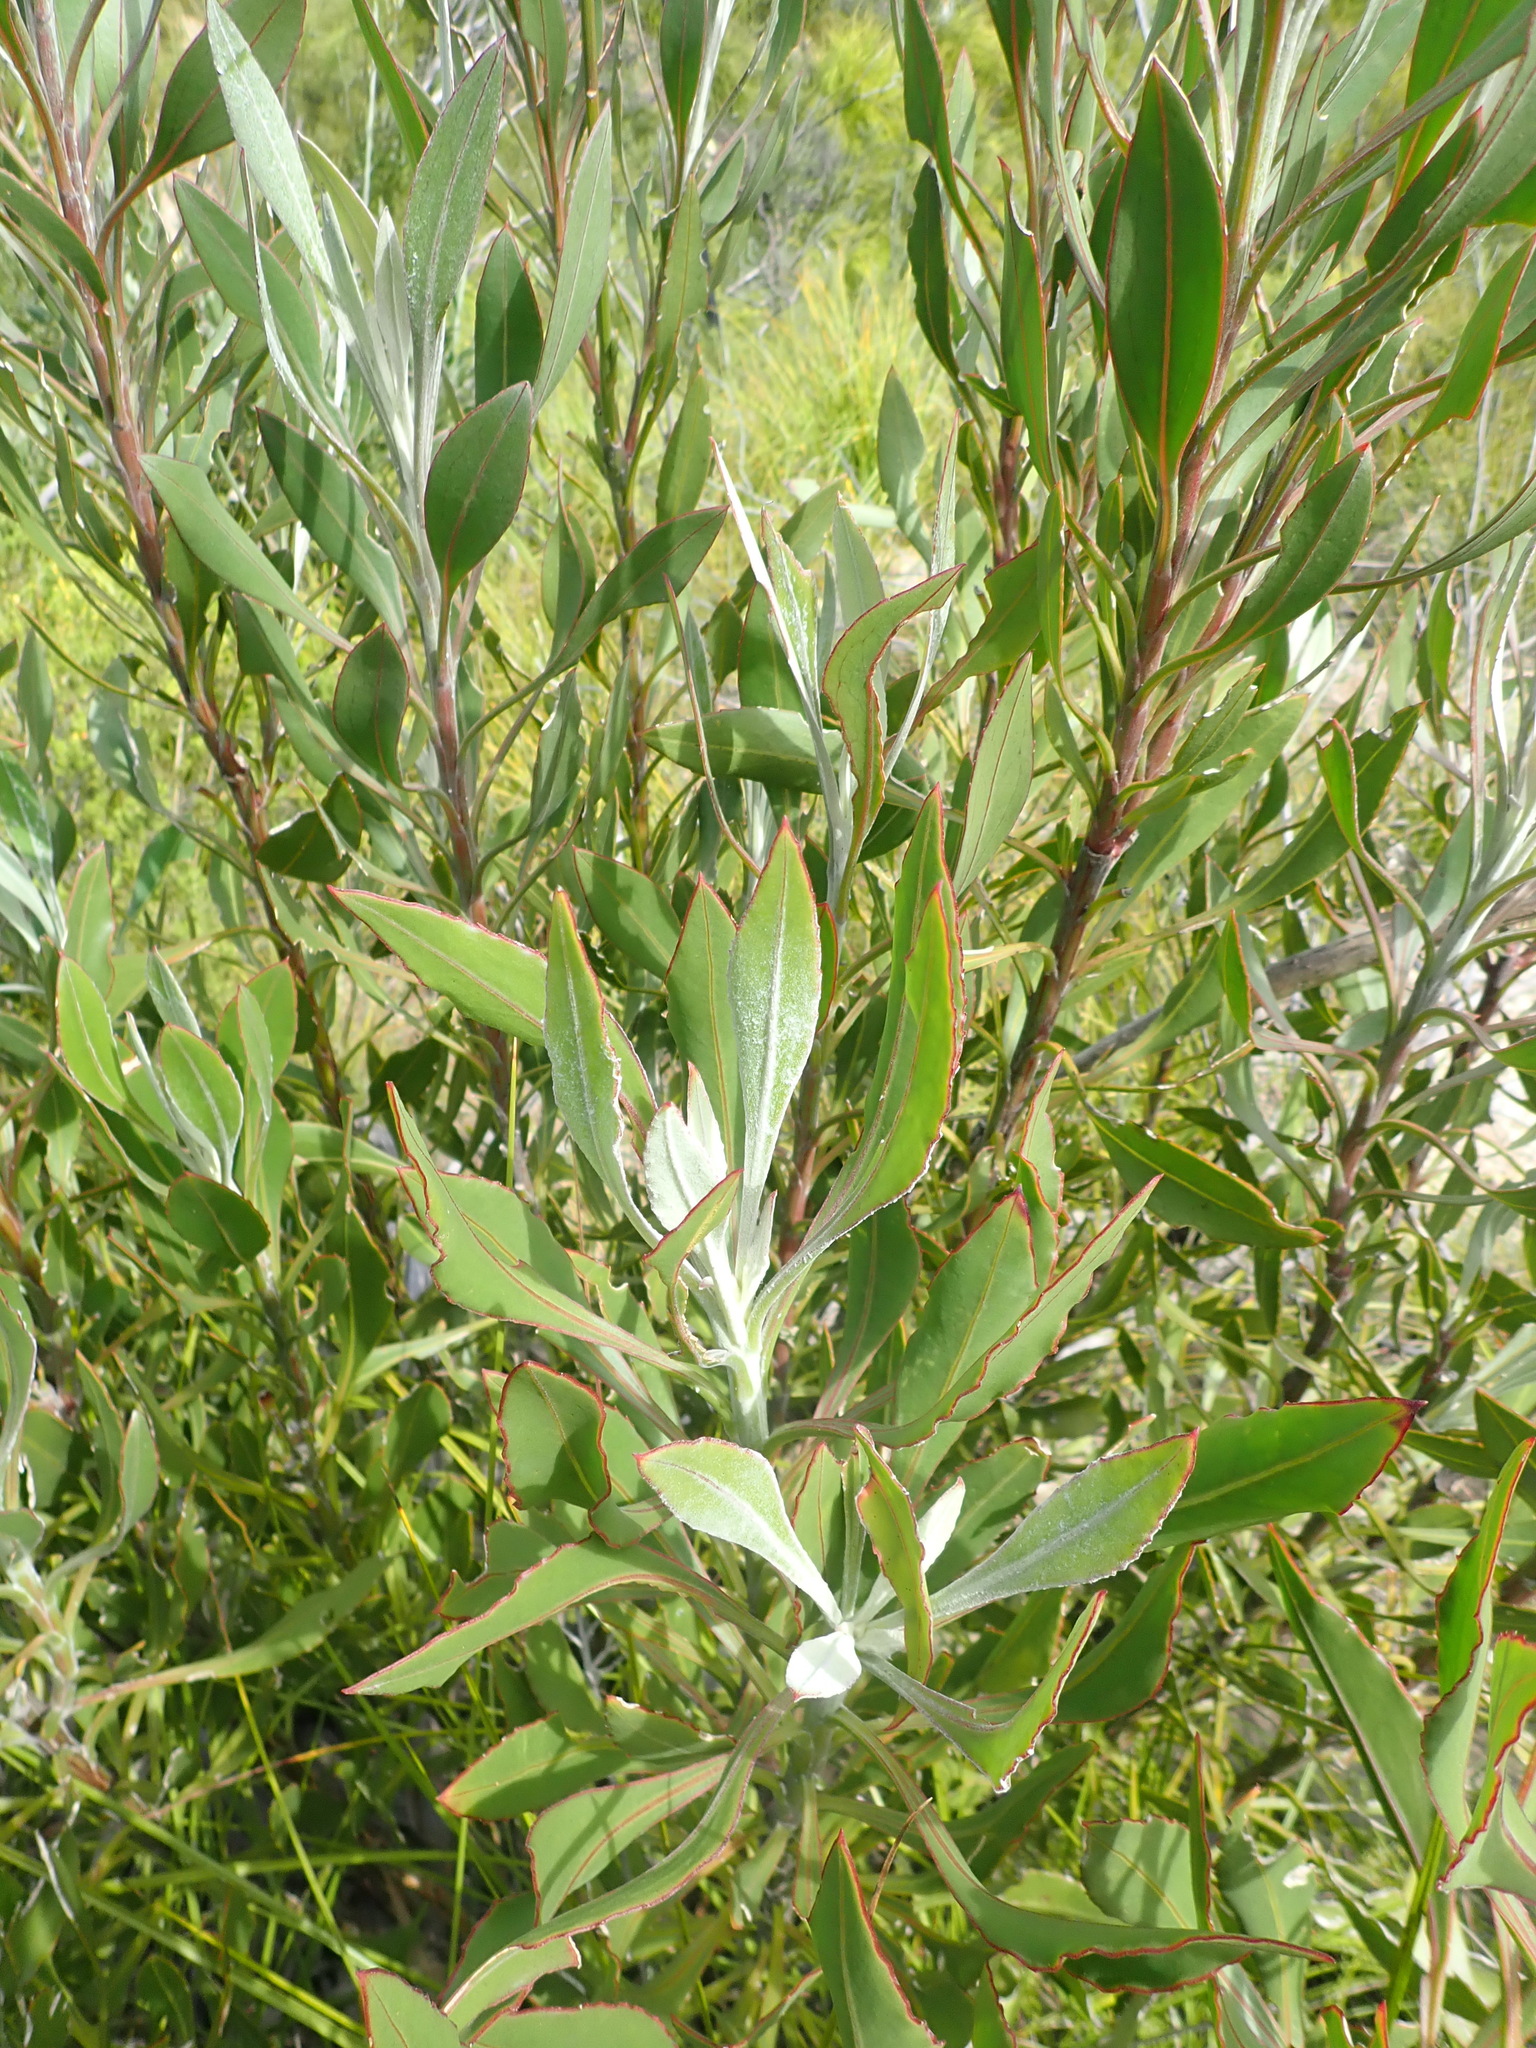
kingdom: Plantae
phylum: Tracheophyta
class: Magnoliopsida
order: Asterales
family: Asteraceae
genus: Osteospermum
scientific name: Osteospermum junceum
